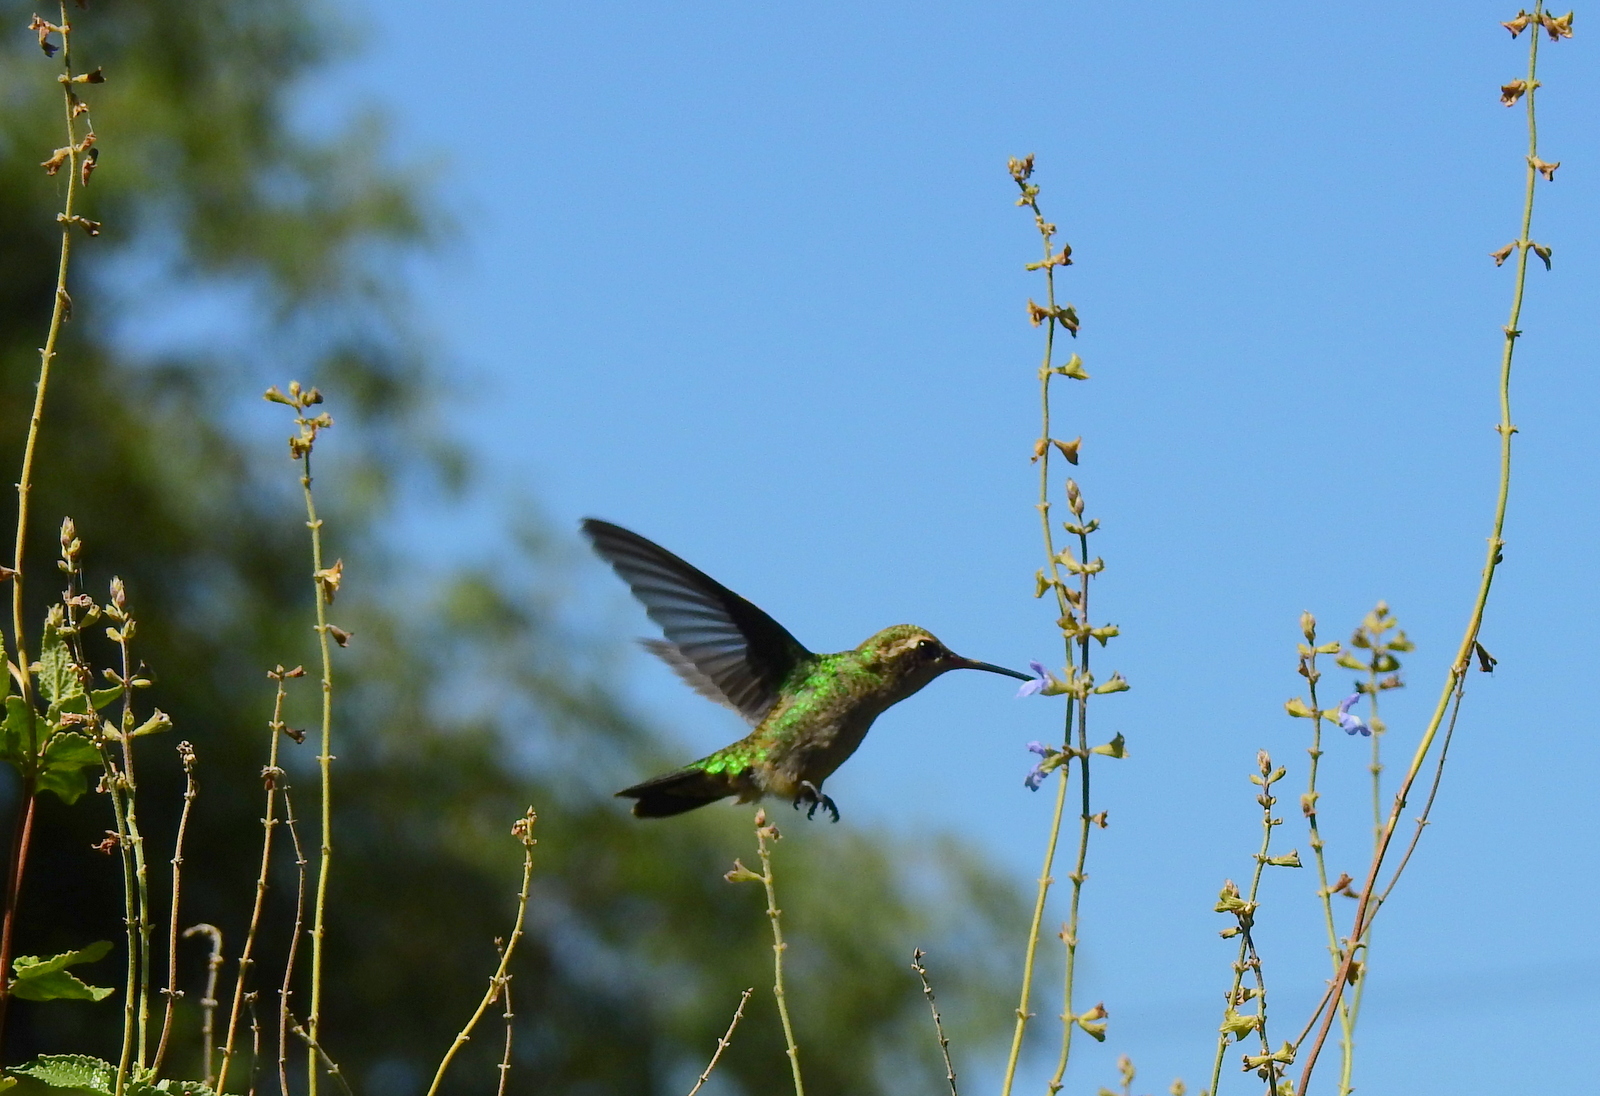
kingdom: Animalia
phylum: Chordata
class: Aves
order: Apodiformes
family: Trochilidae
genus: Chlorostilbon
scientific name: Chlorostilbon lucidus
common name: Glittering-bellied emerald
